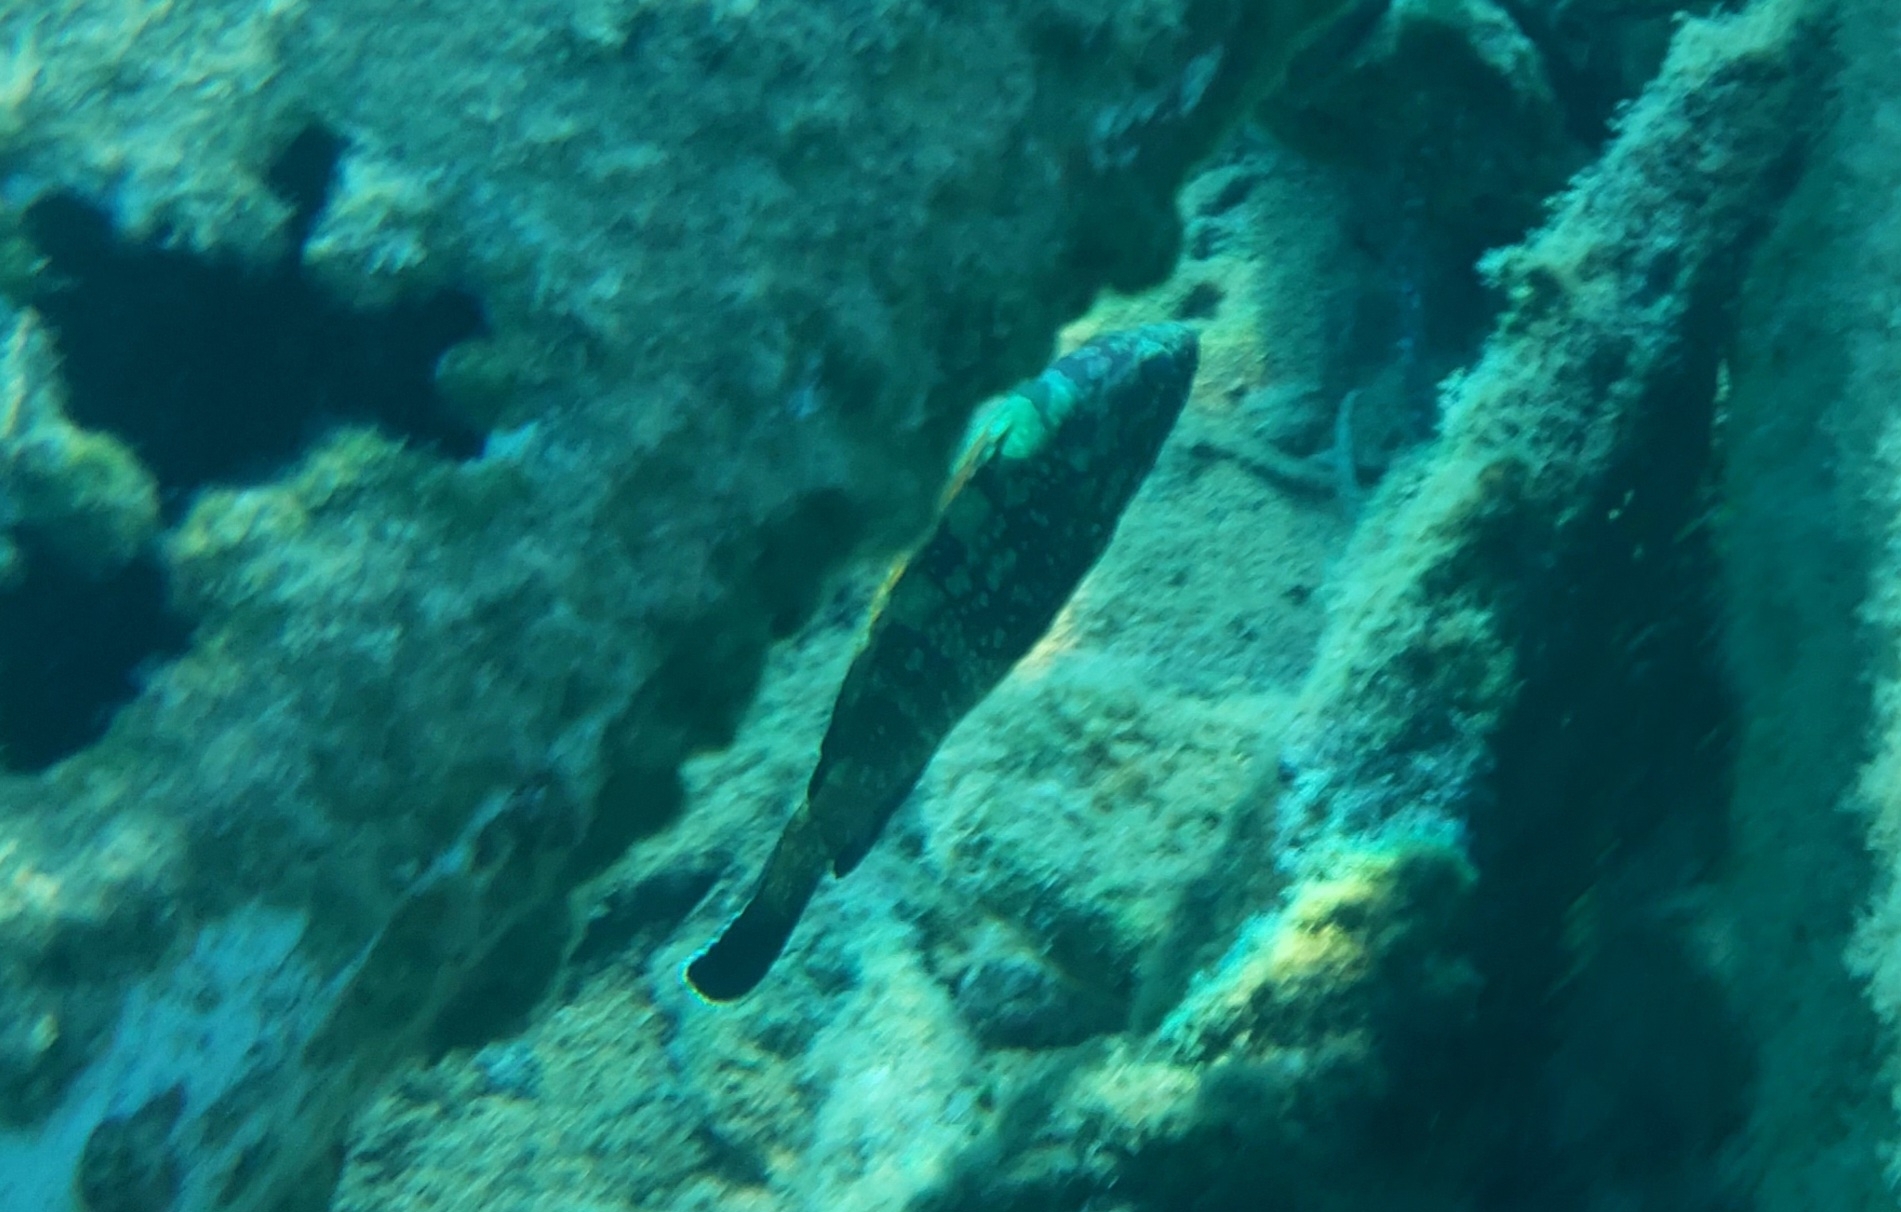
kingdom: Animalia
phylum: Chordata
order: Perciformes
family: Serranidae
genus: Epinephelus
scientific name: Epinephelus marginatus
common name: Dusky grouper
